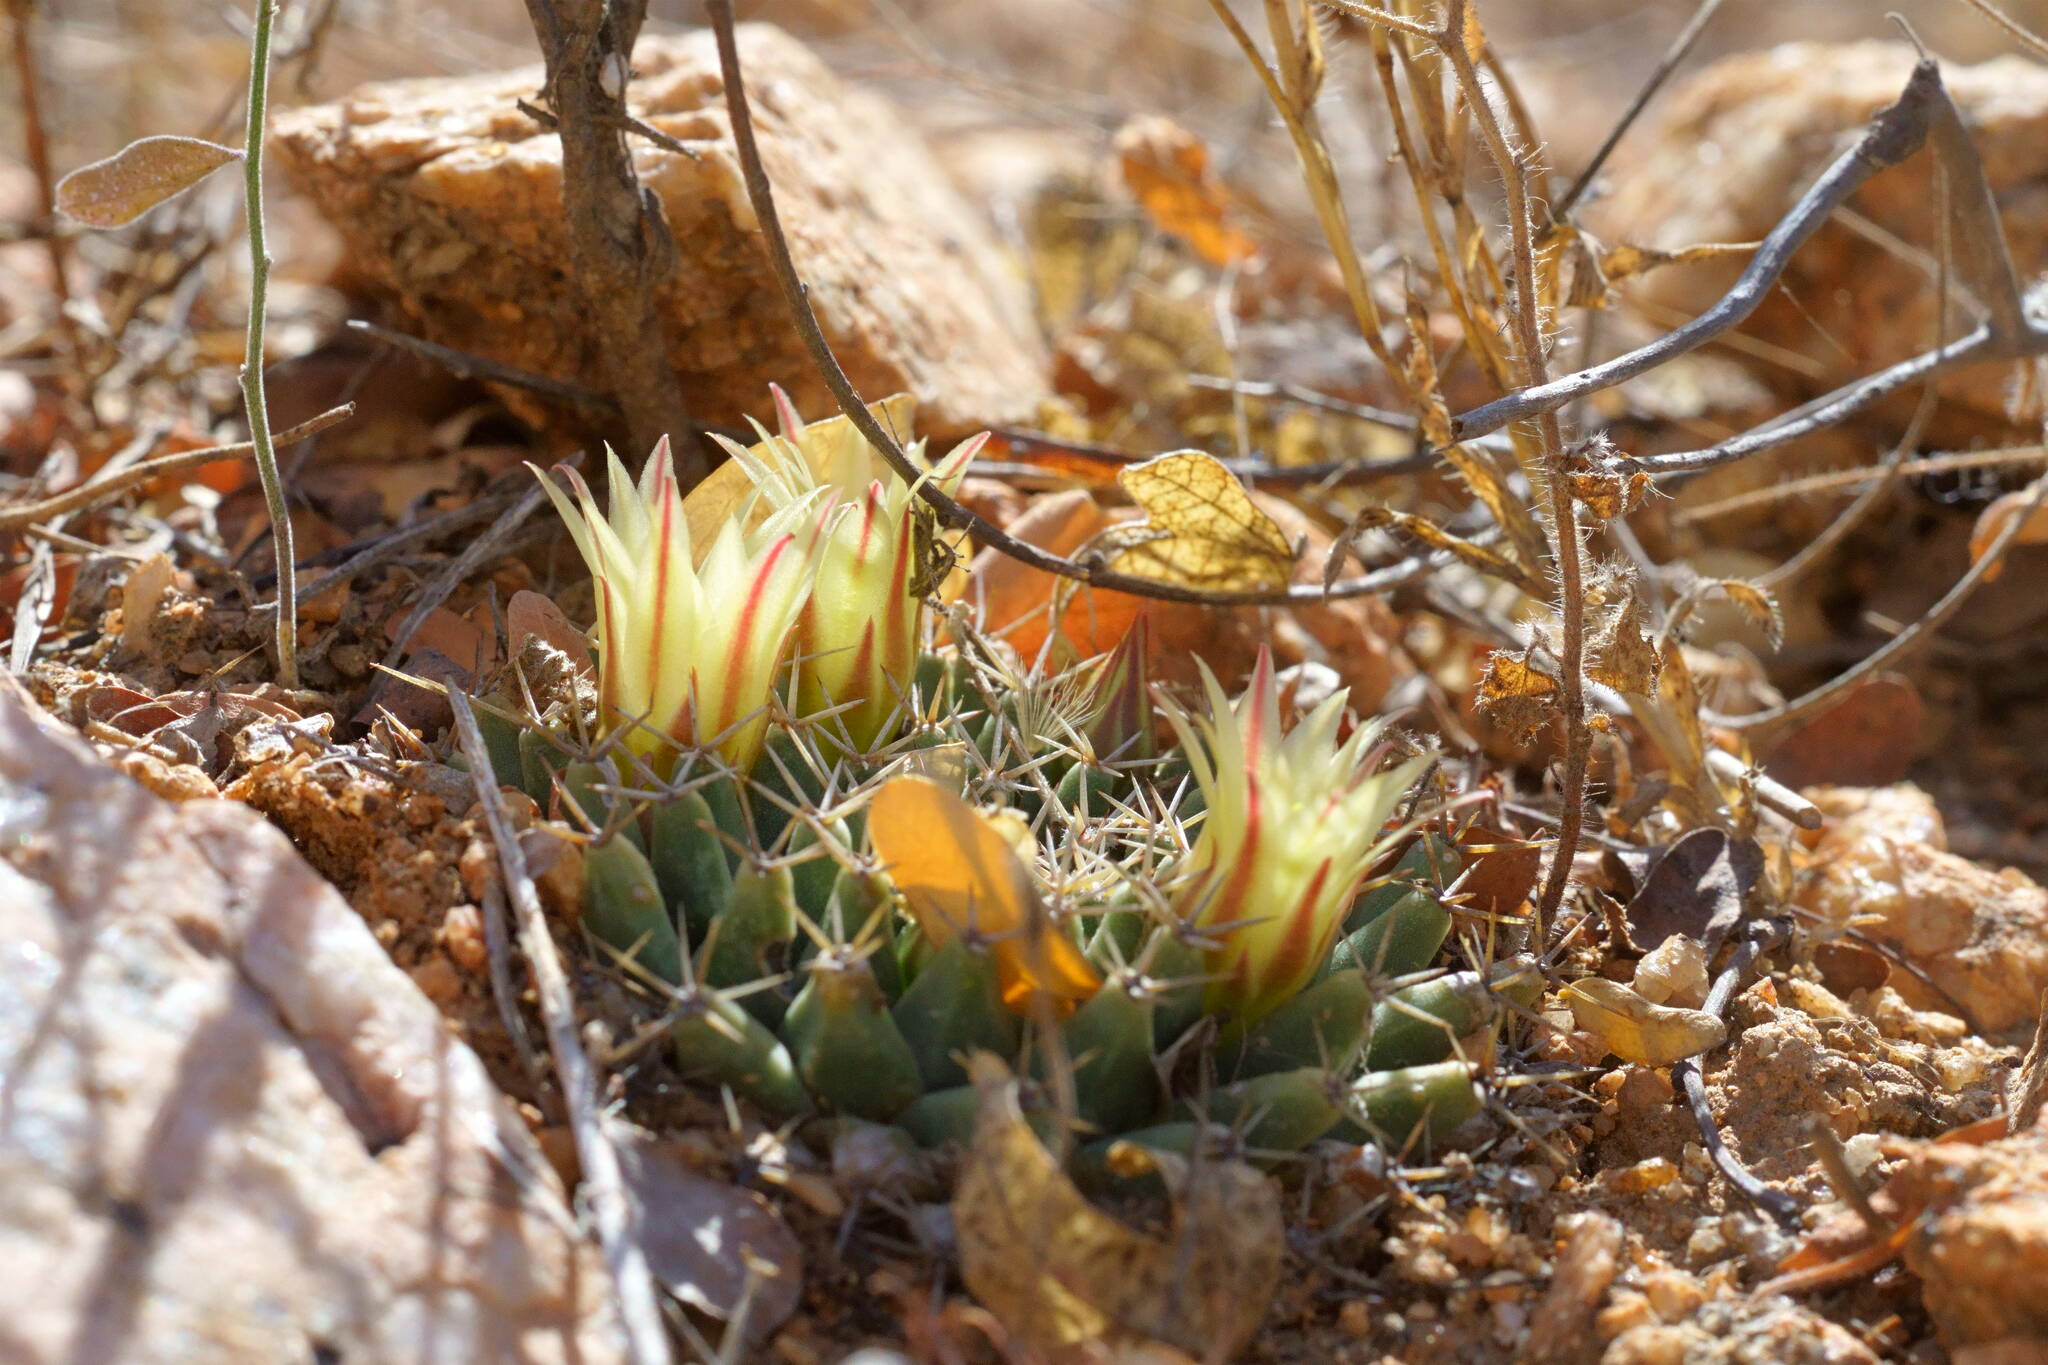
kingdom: Plantae
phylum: Tracheophyta
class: Magnoliopsida
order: Caryophyllales
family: Cactaceae
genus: Mammillaria
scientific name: Mammillaria peninsularis
